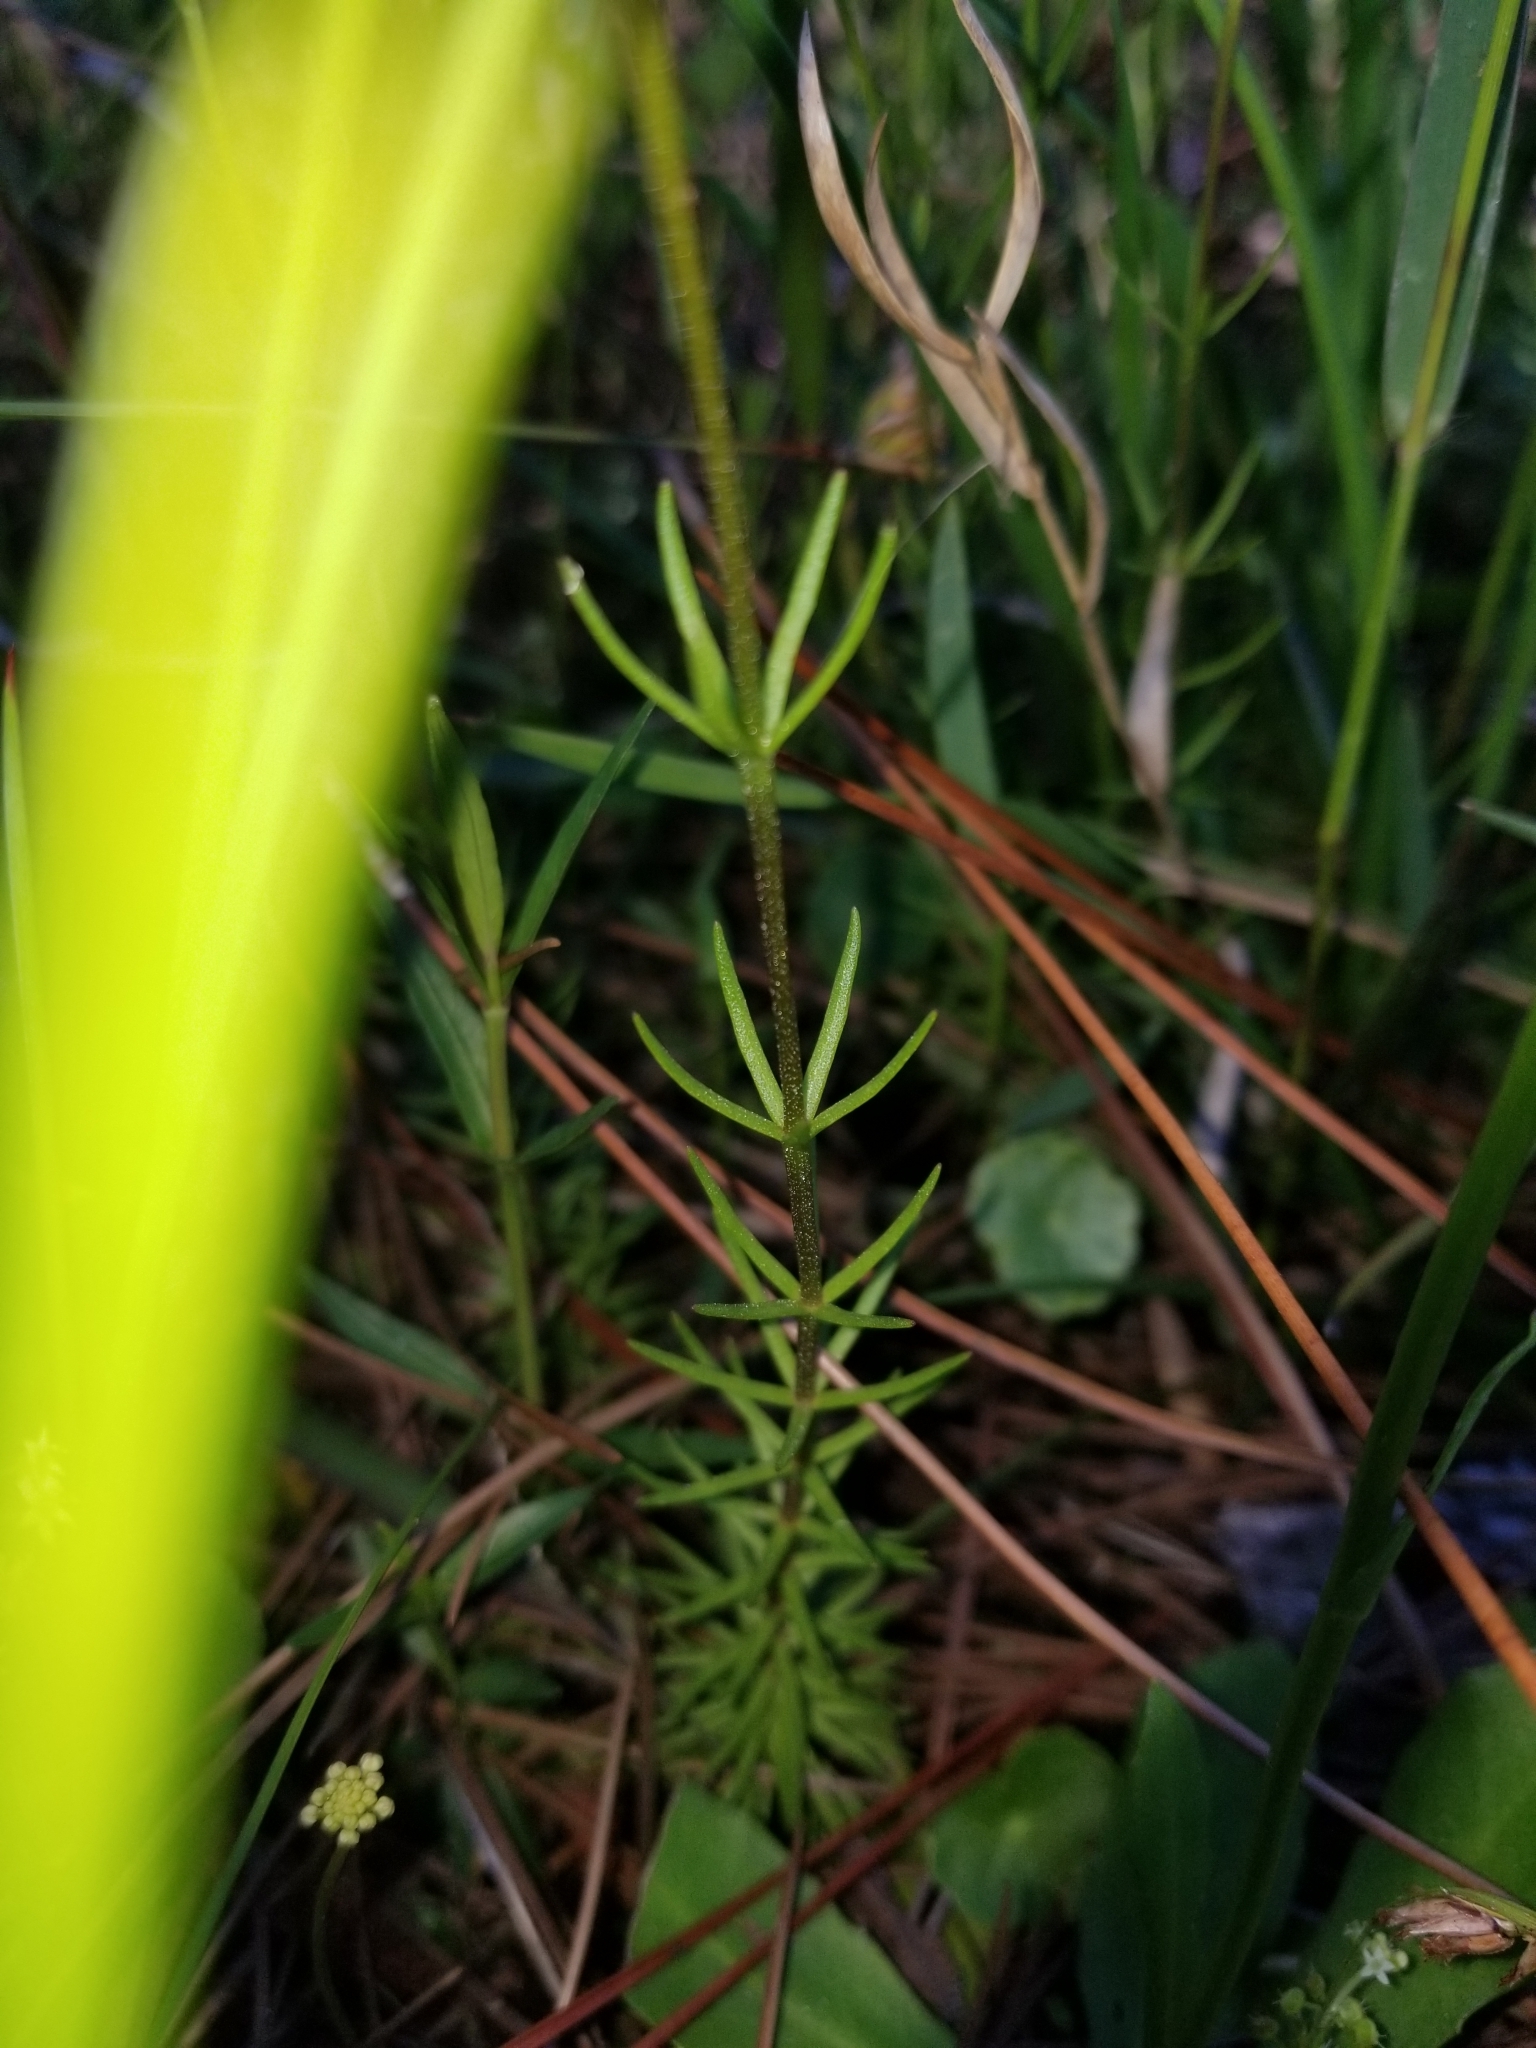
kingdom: Plantae
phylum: Tracheophyta
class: Magnoliopsida
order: Asterales
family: Asteraceae
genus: Sclerolepis
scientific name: Sclerolepis uniflora
